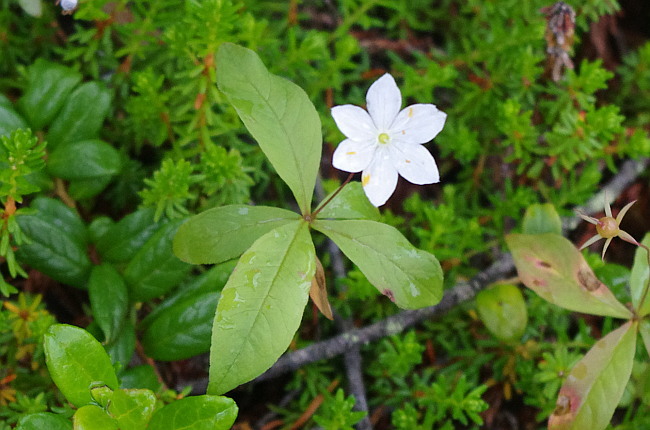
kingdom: Plantae
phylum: Tracheophyta
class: Magnoliopsida
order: Ericales
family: Primulaceae
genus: Lysimachia
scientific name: Lysimachia europaea
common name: Arctic starflower
